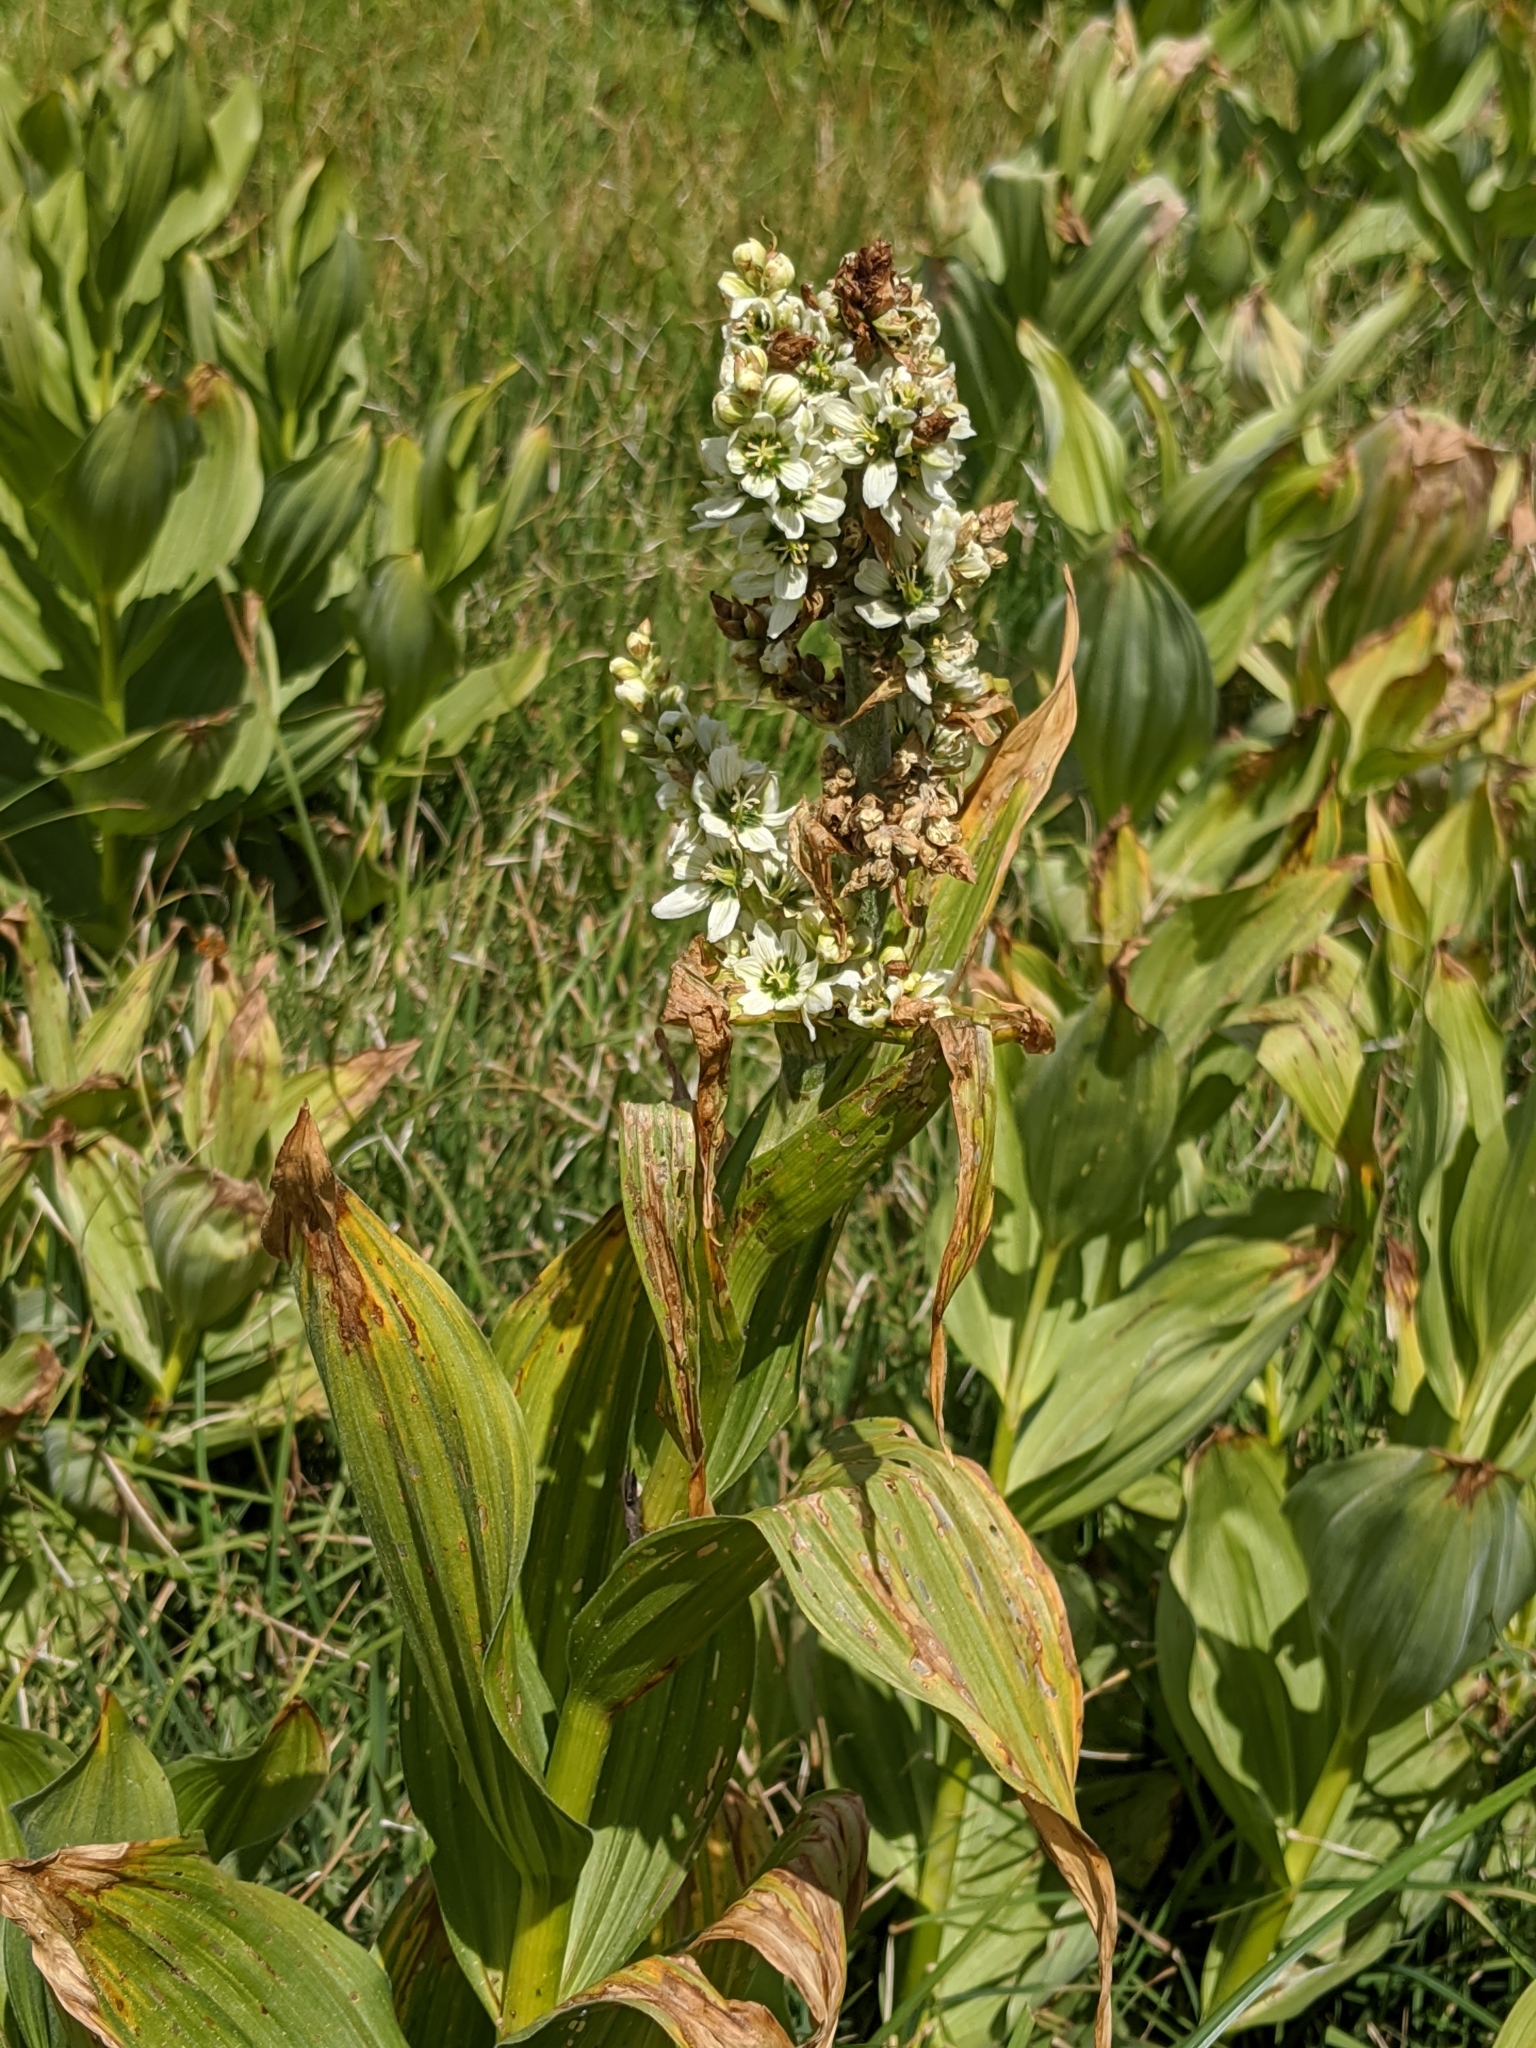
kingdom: Plantae
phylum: Tracheophyta
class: Liliopsida
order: Liliales
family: Melanthiaceae
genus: Veratrum
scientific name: Veratrum californicum
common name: California veratrum
